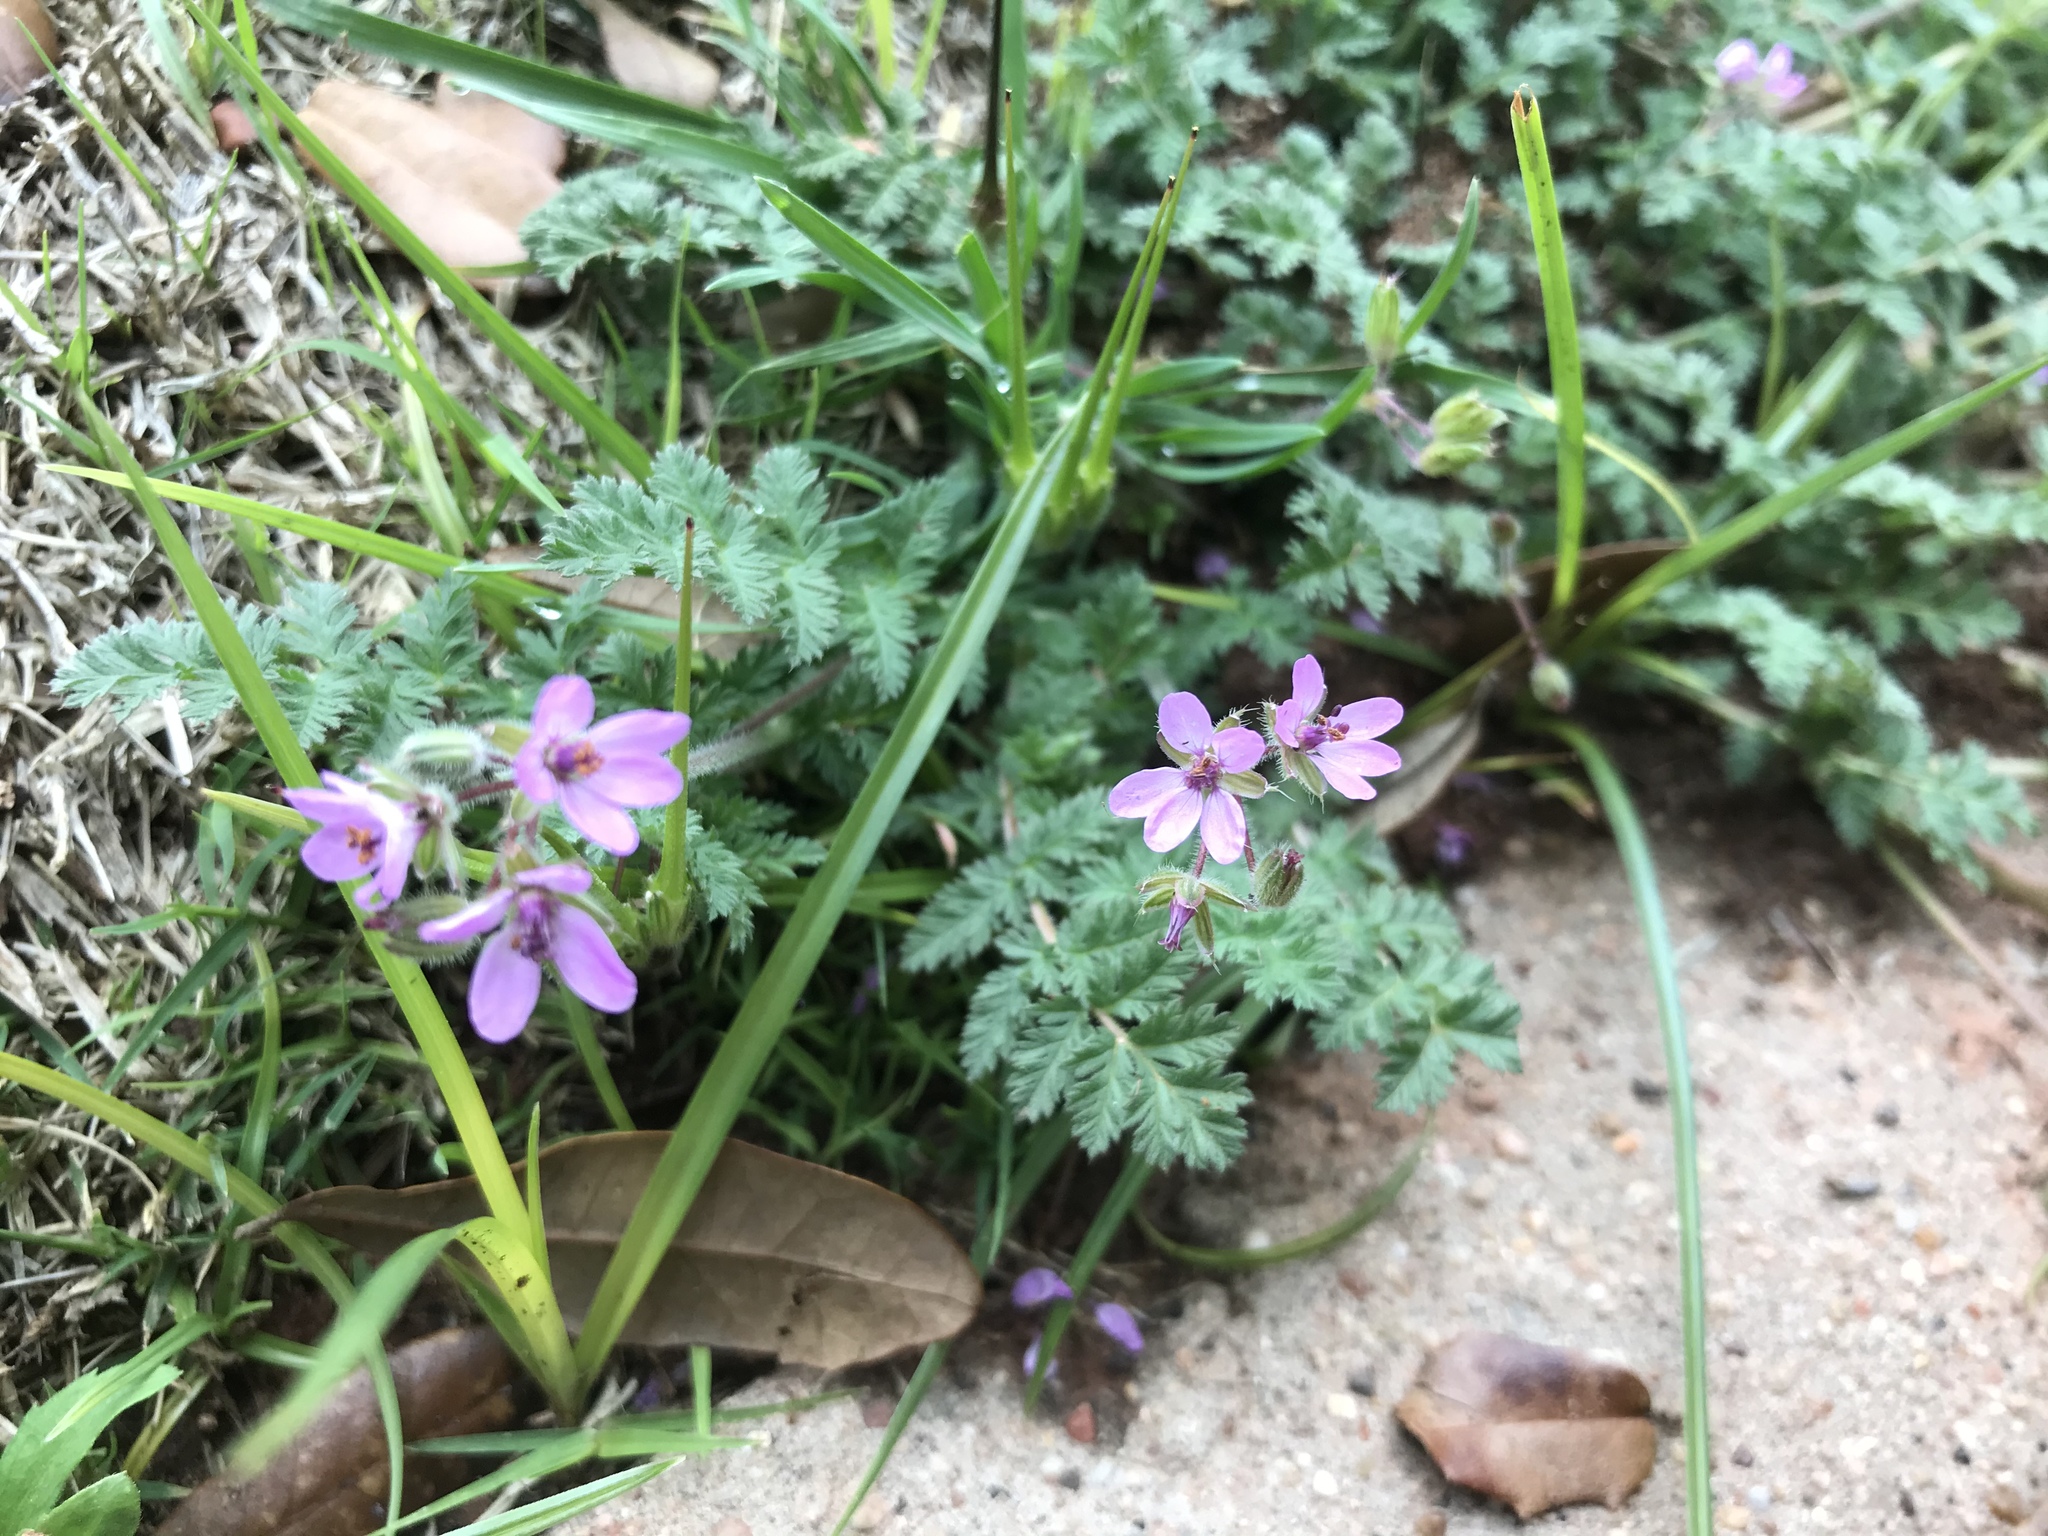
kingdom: Plantae
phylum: Tracheophyta
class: Magnoliopsida
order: Geraniales
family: Geraniaceae
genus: Erodium
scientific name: Erodium cicutarium
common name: Common stork's-bill
